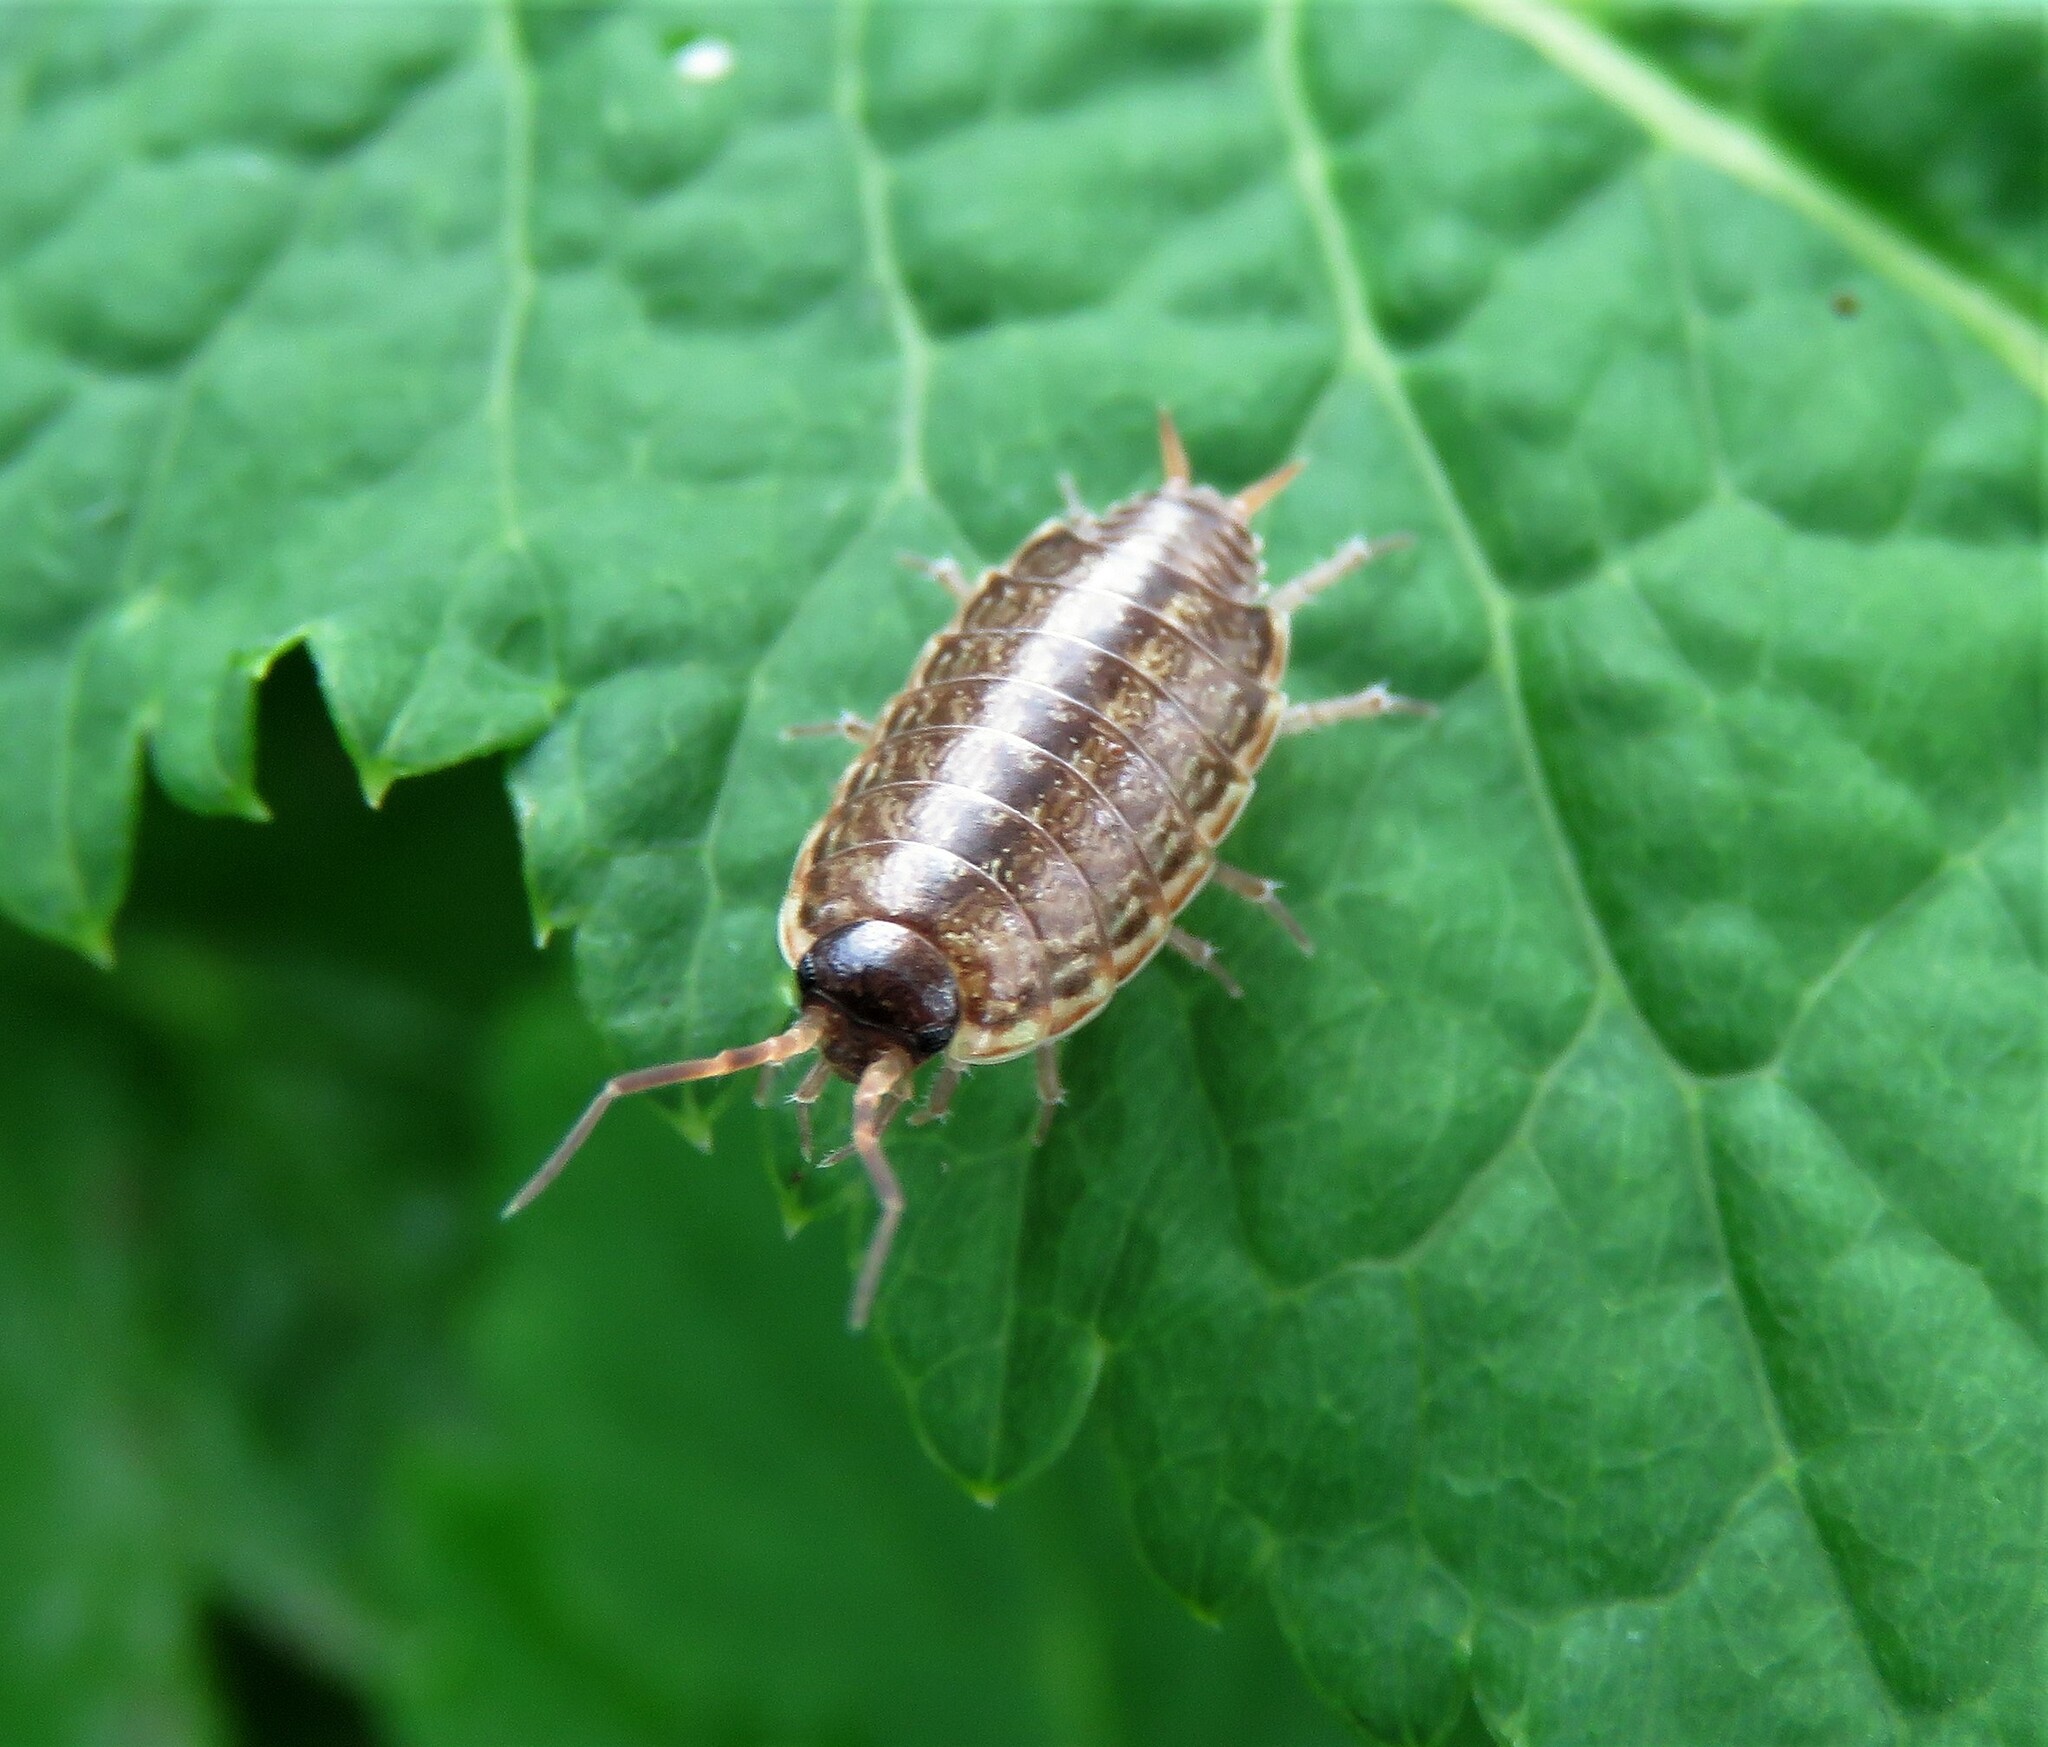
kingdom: Animalia
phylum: Arthropoda
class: Malacostraca
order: Isopoda
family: Philosciidae
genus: Philoscia
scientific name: Philoscia muscorum
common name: Common striped woodlouse
